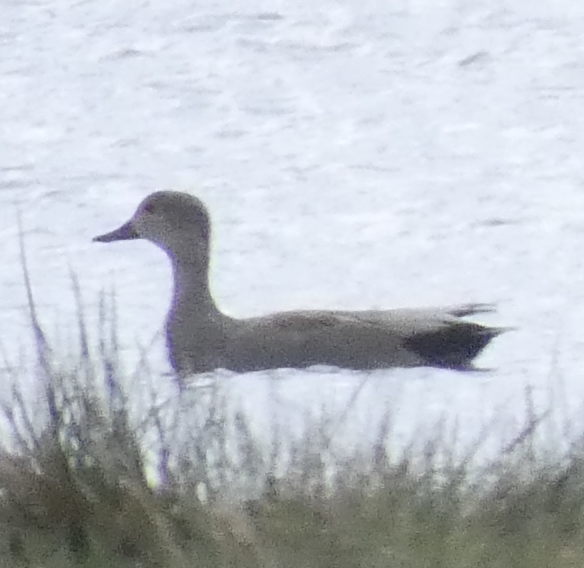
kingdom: Animalia
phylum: Chordata
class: Aves
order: Anseriformes
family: Anatidae
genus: Mareca
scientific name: Mareca strepera
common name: Gadwall
